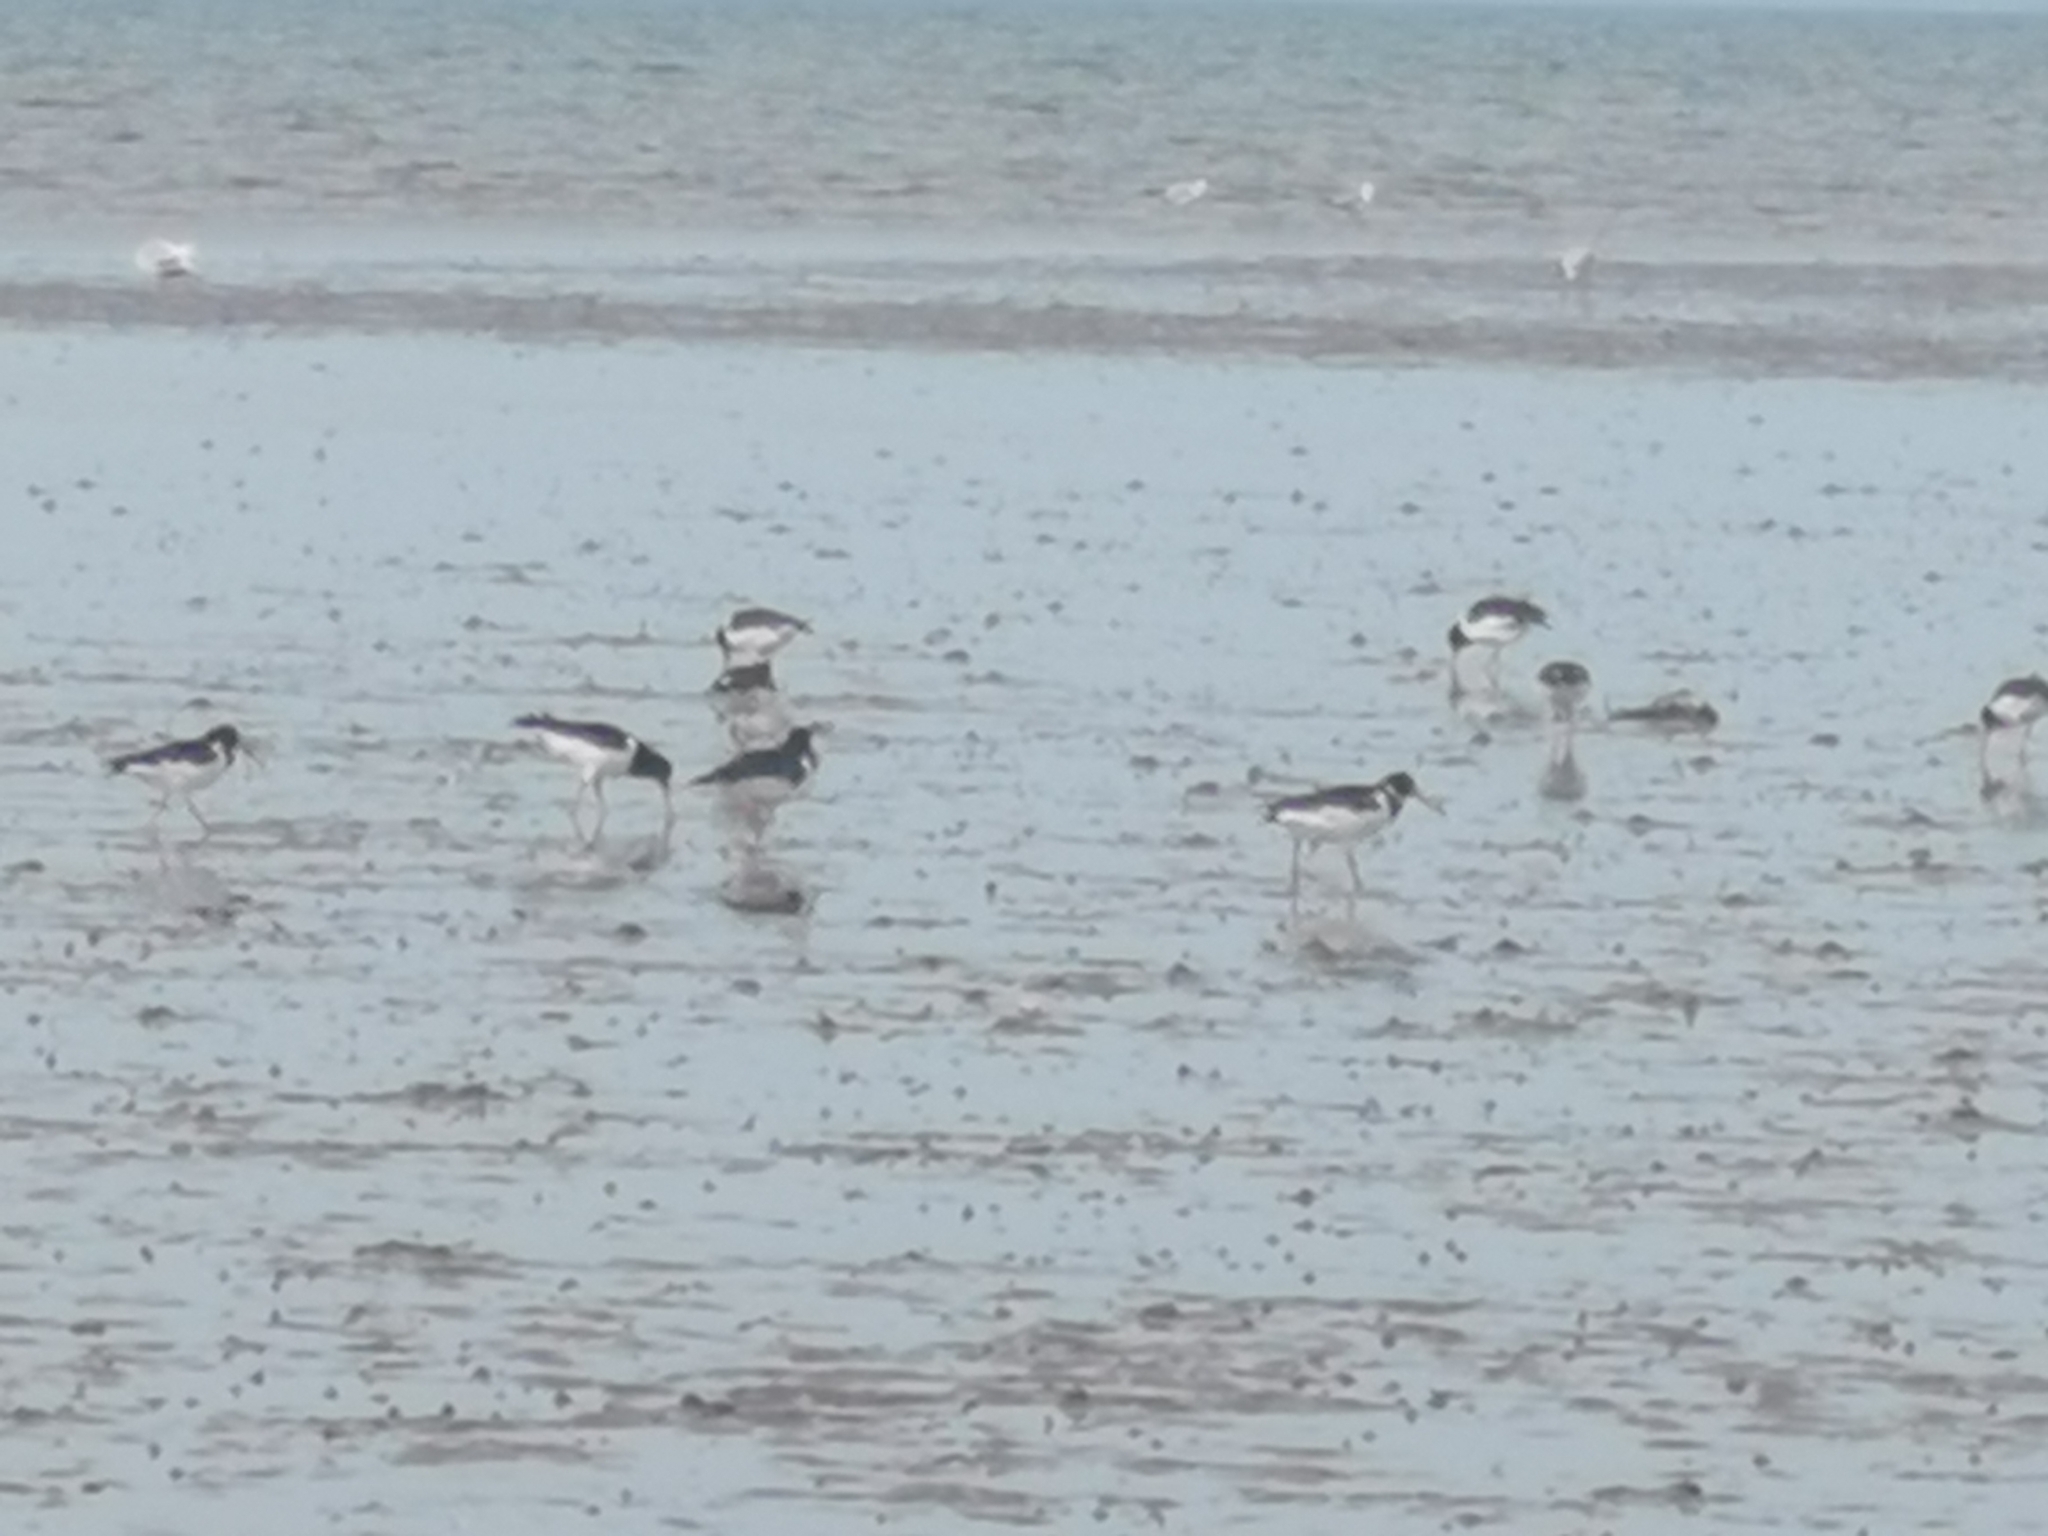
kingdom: Animalia
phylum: Chordata
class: Aves
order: Charadriiformes
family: Haematopodidae
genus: Haematopus
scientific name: Haematopus ostralegus
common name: Eurasian oystercatcher
